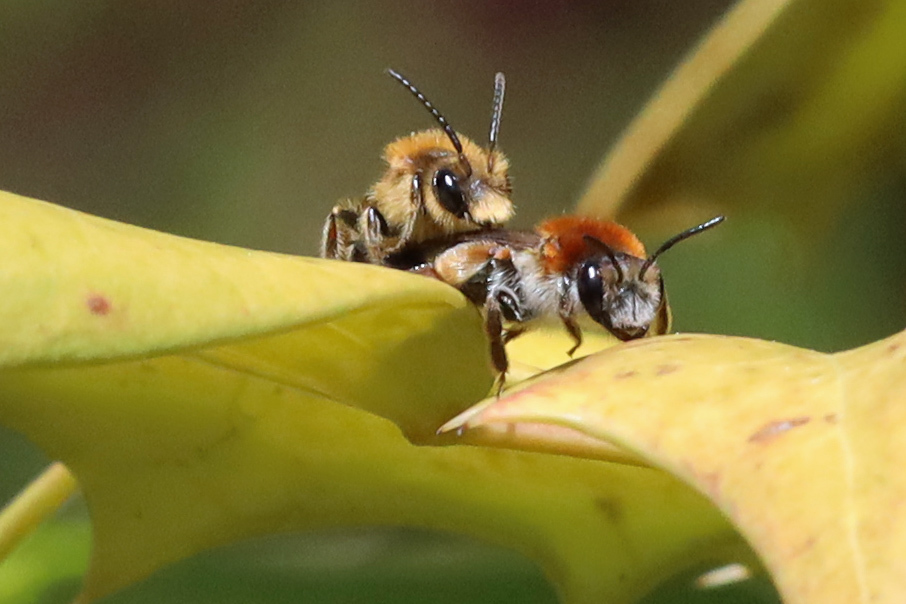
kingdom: Animalia
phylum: Arthropoda
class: Insecta
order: Hymenoptera
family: Andrenidae
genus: Andrena
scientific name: Andrena haemorrhoa
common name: Early mining bee
